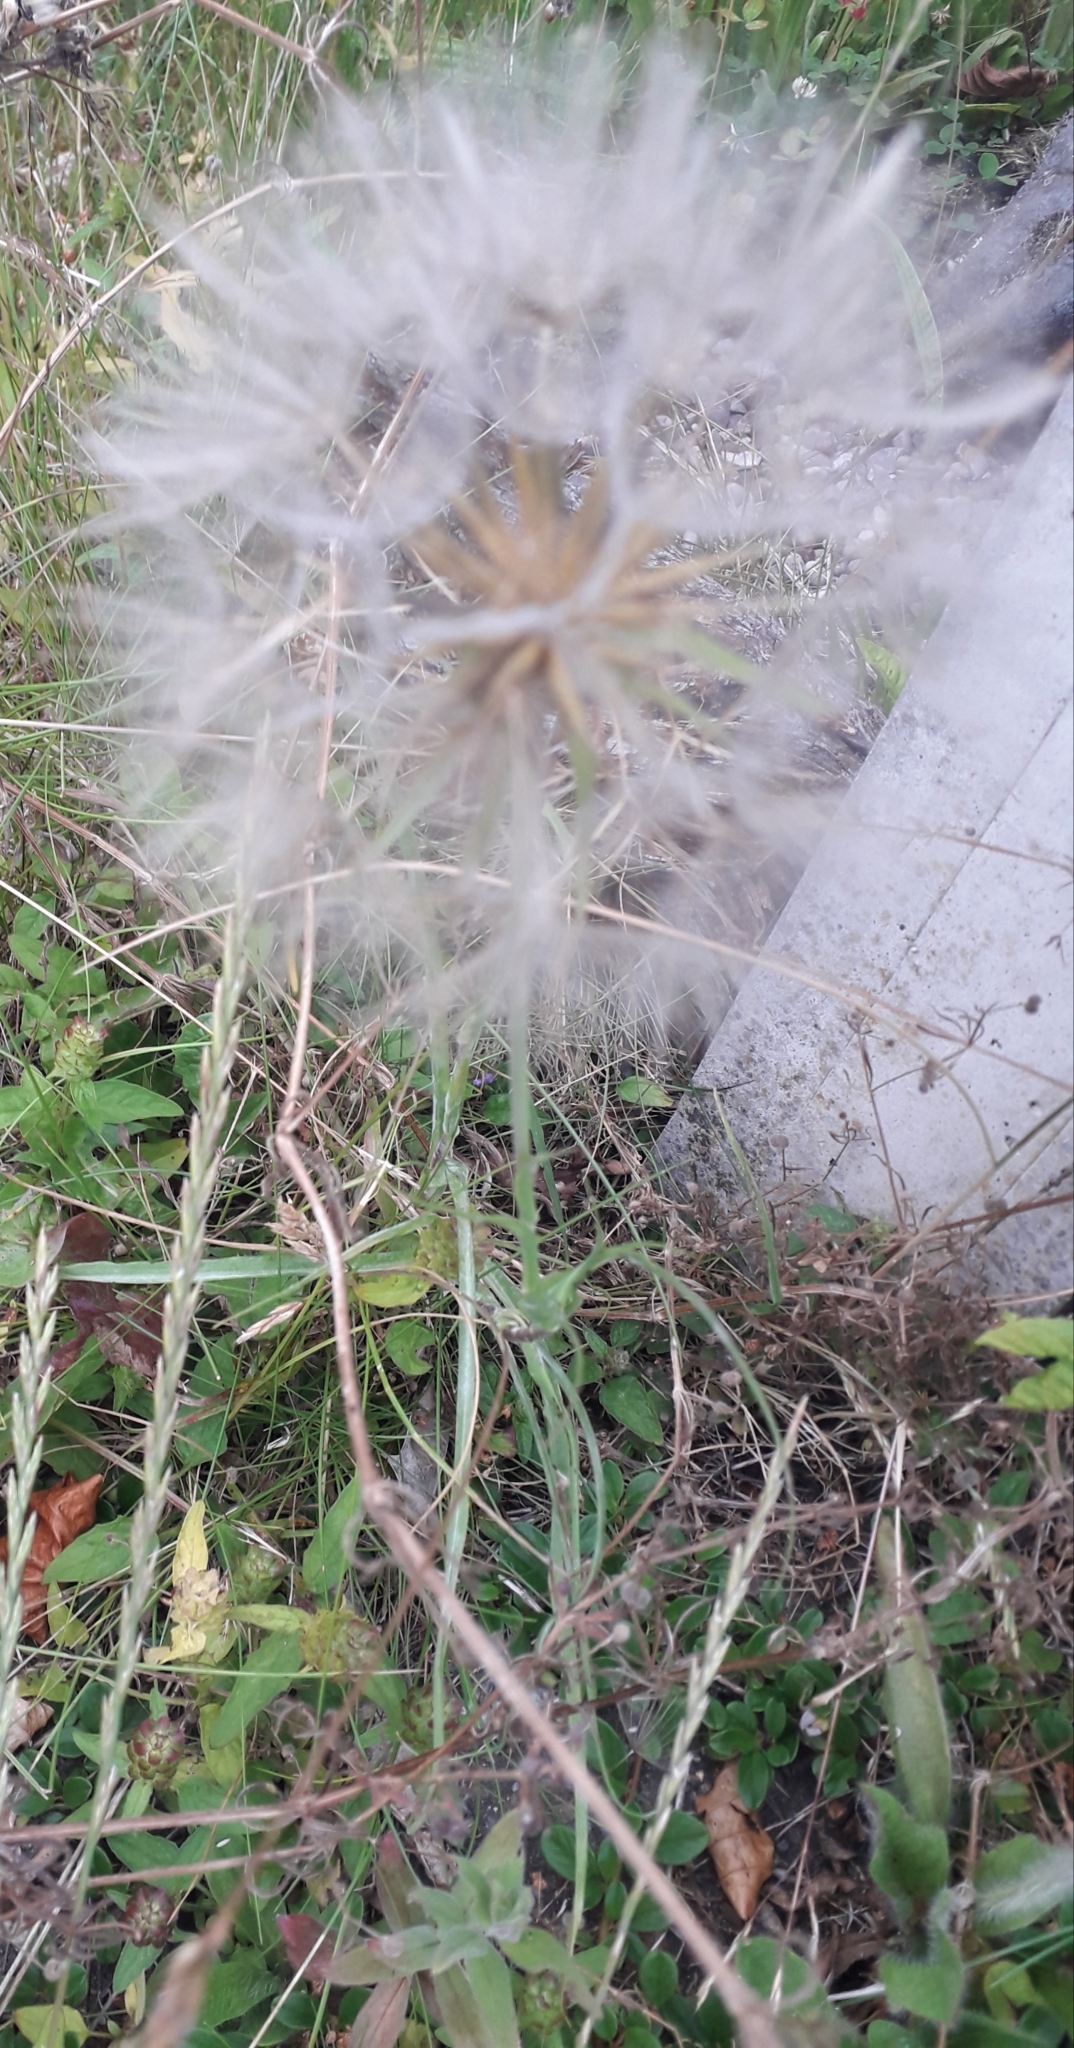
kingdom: Plantae
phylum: Tracheophyta
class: Magnoliopsida
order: Asterales
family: Asteraceae
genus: Tragopogon
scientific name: Tragopogon pratensis
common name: Goat's-beard
